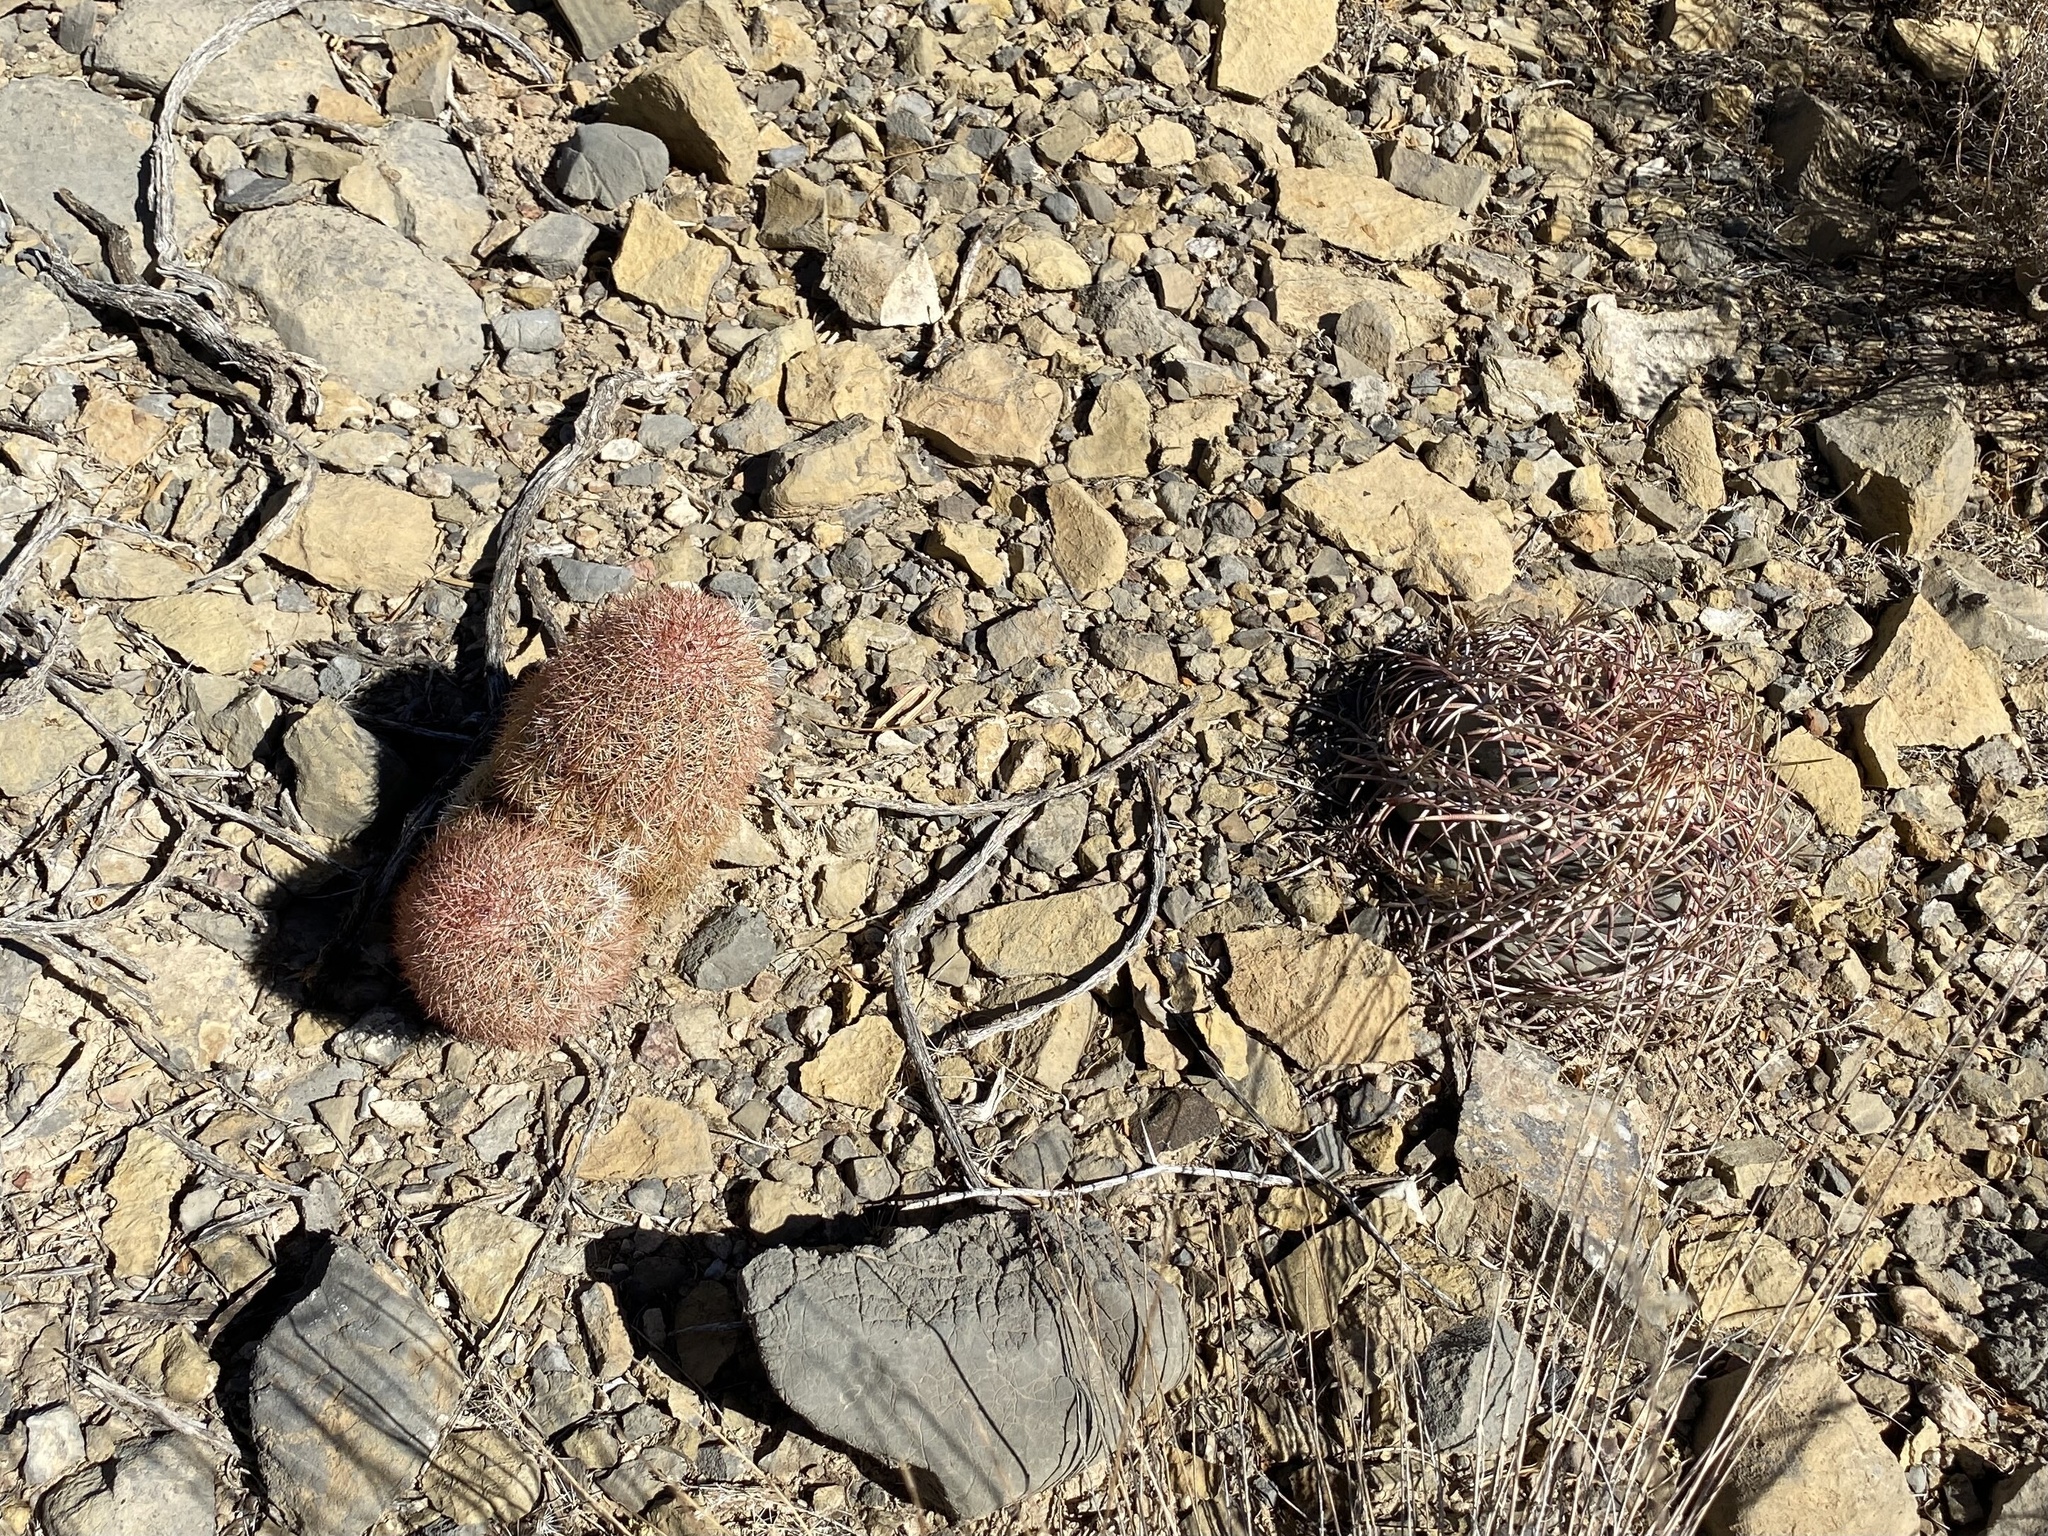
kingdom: Plantae
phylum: Tracheophyta
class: Magnoliopsida
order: Caryophyllales
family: Cactaceae
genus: Echinocereus
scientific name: Echinocereus dasyacanthus
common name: Spiny hedgehog cactus
